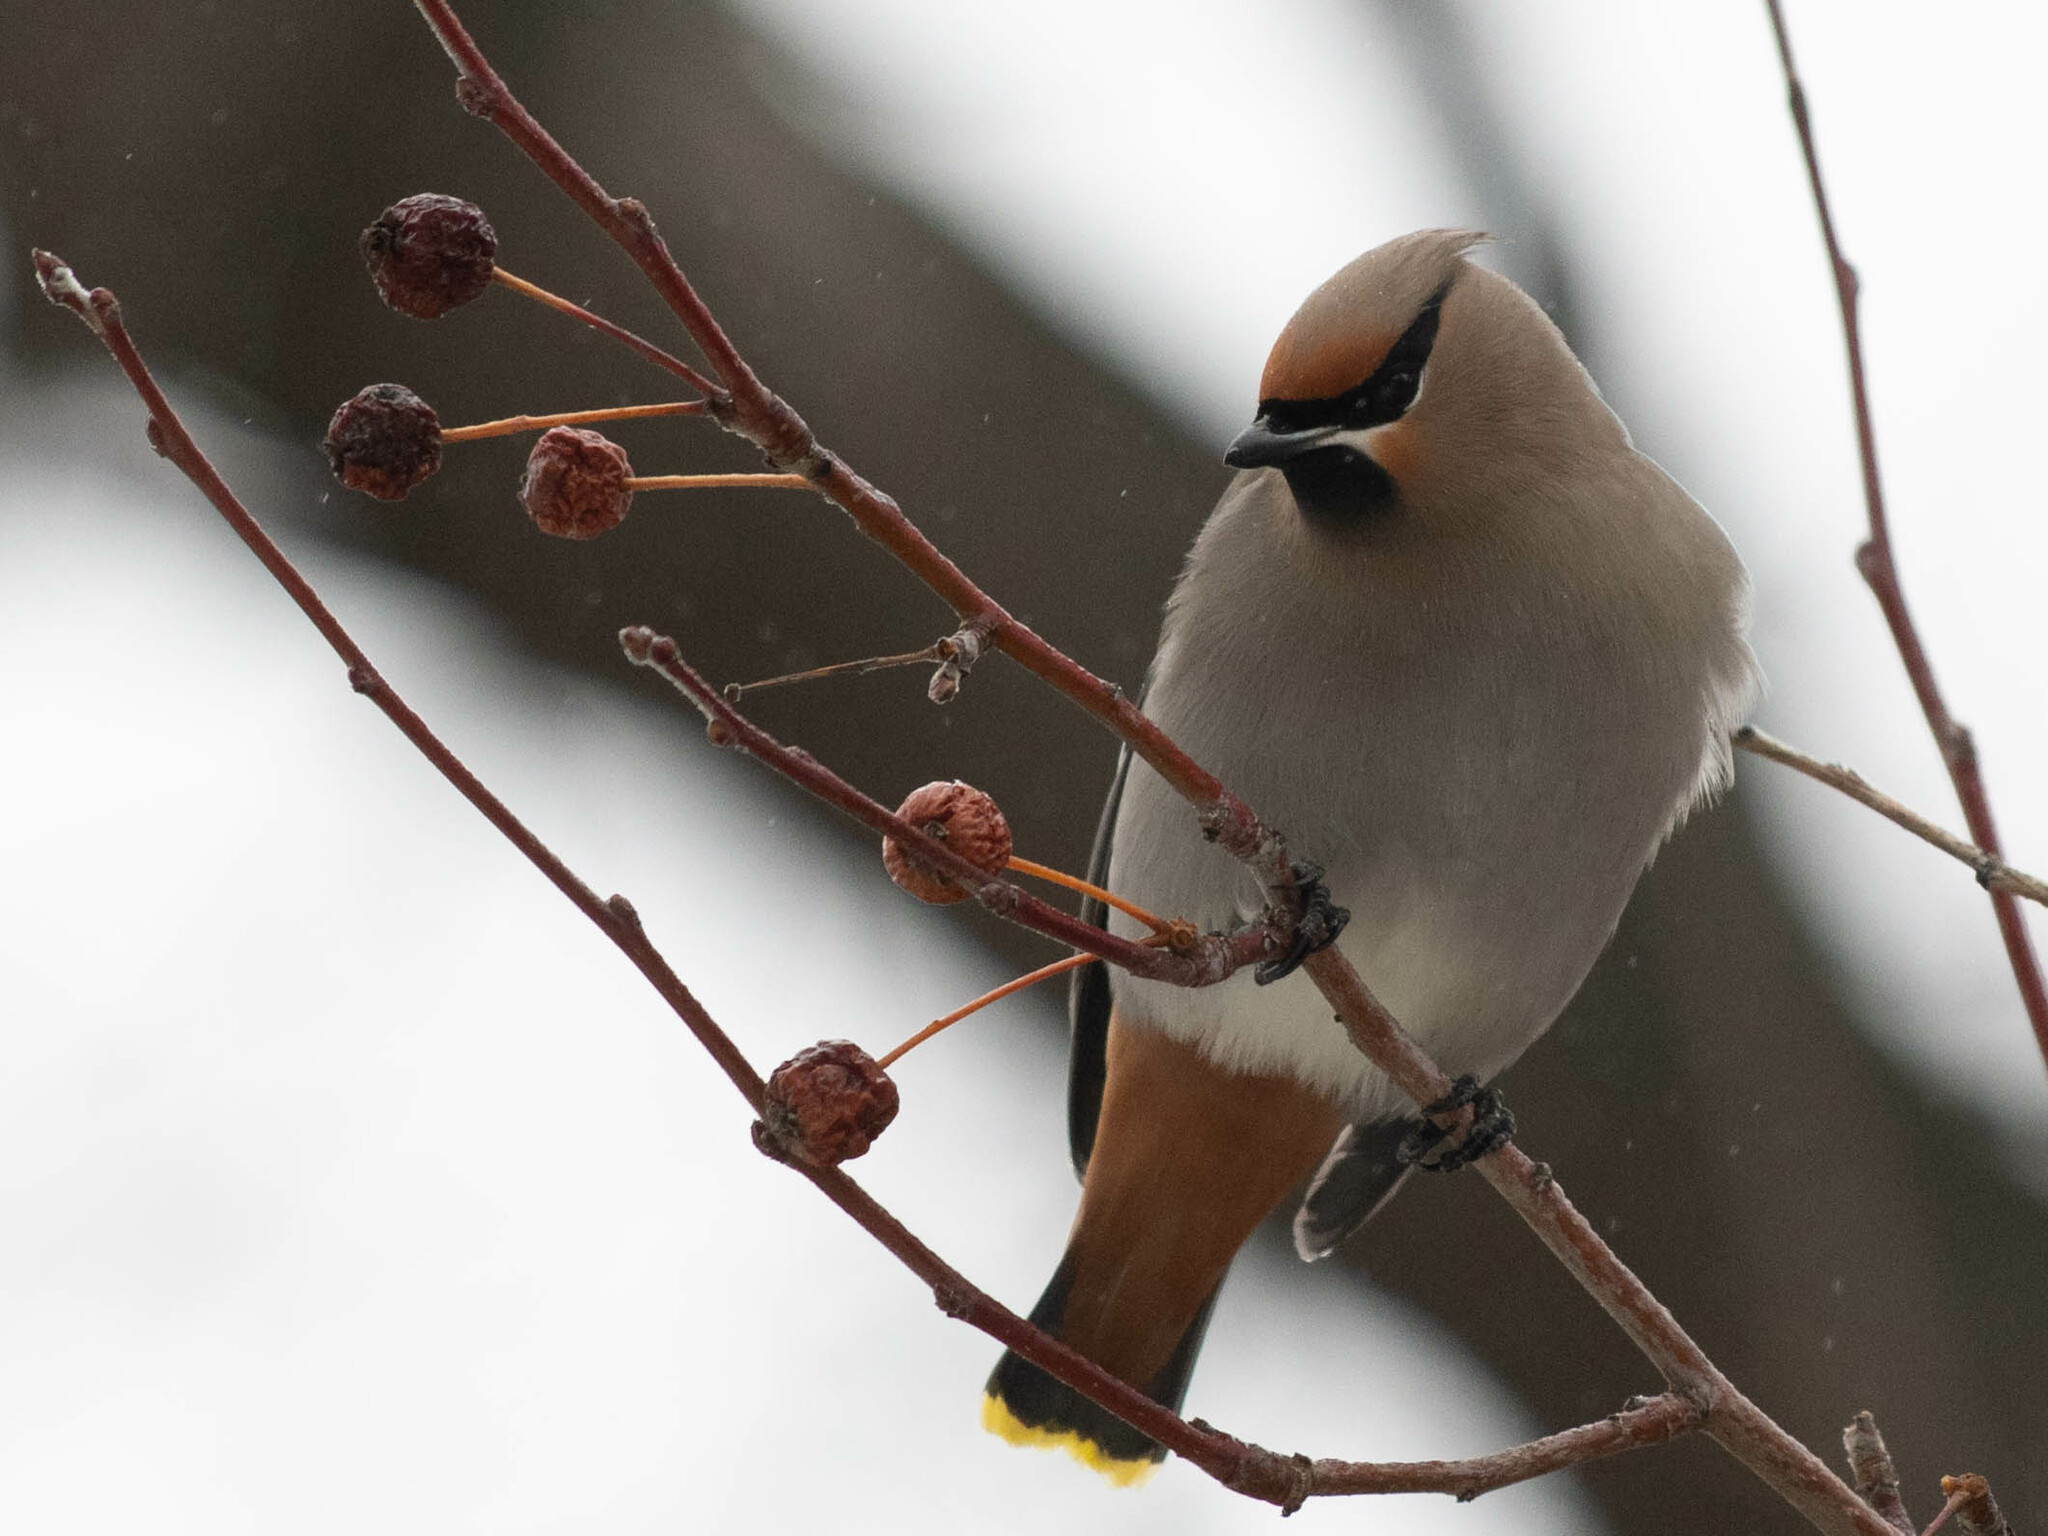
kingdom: Animalia
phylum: Chordata
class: Aves
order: Passeriformes
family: Bombycillidae
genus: Bombycilla
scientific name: Bombycilla garrulus
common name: Bohemian waxwing
